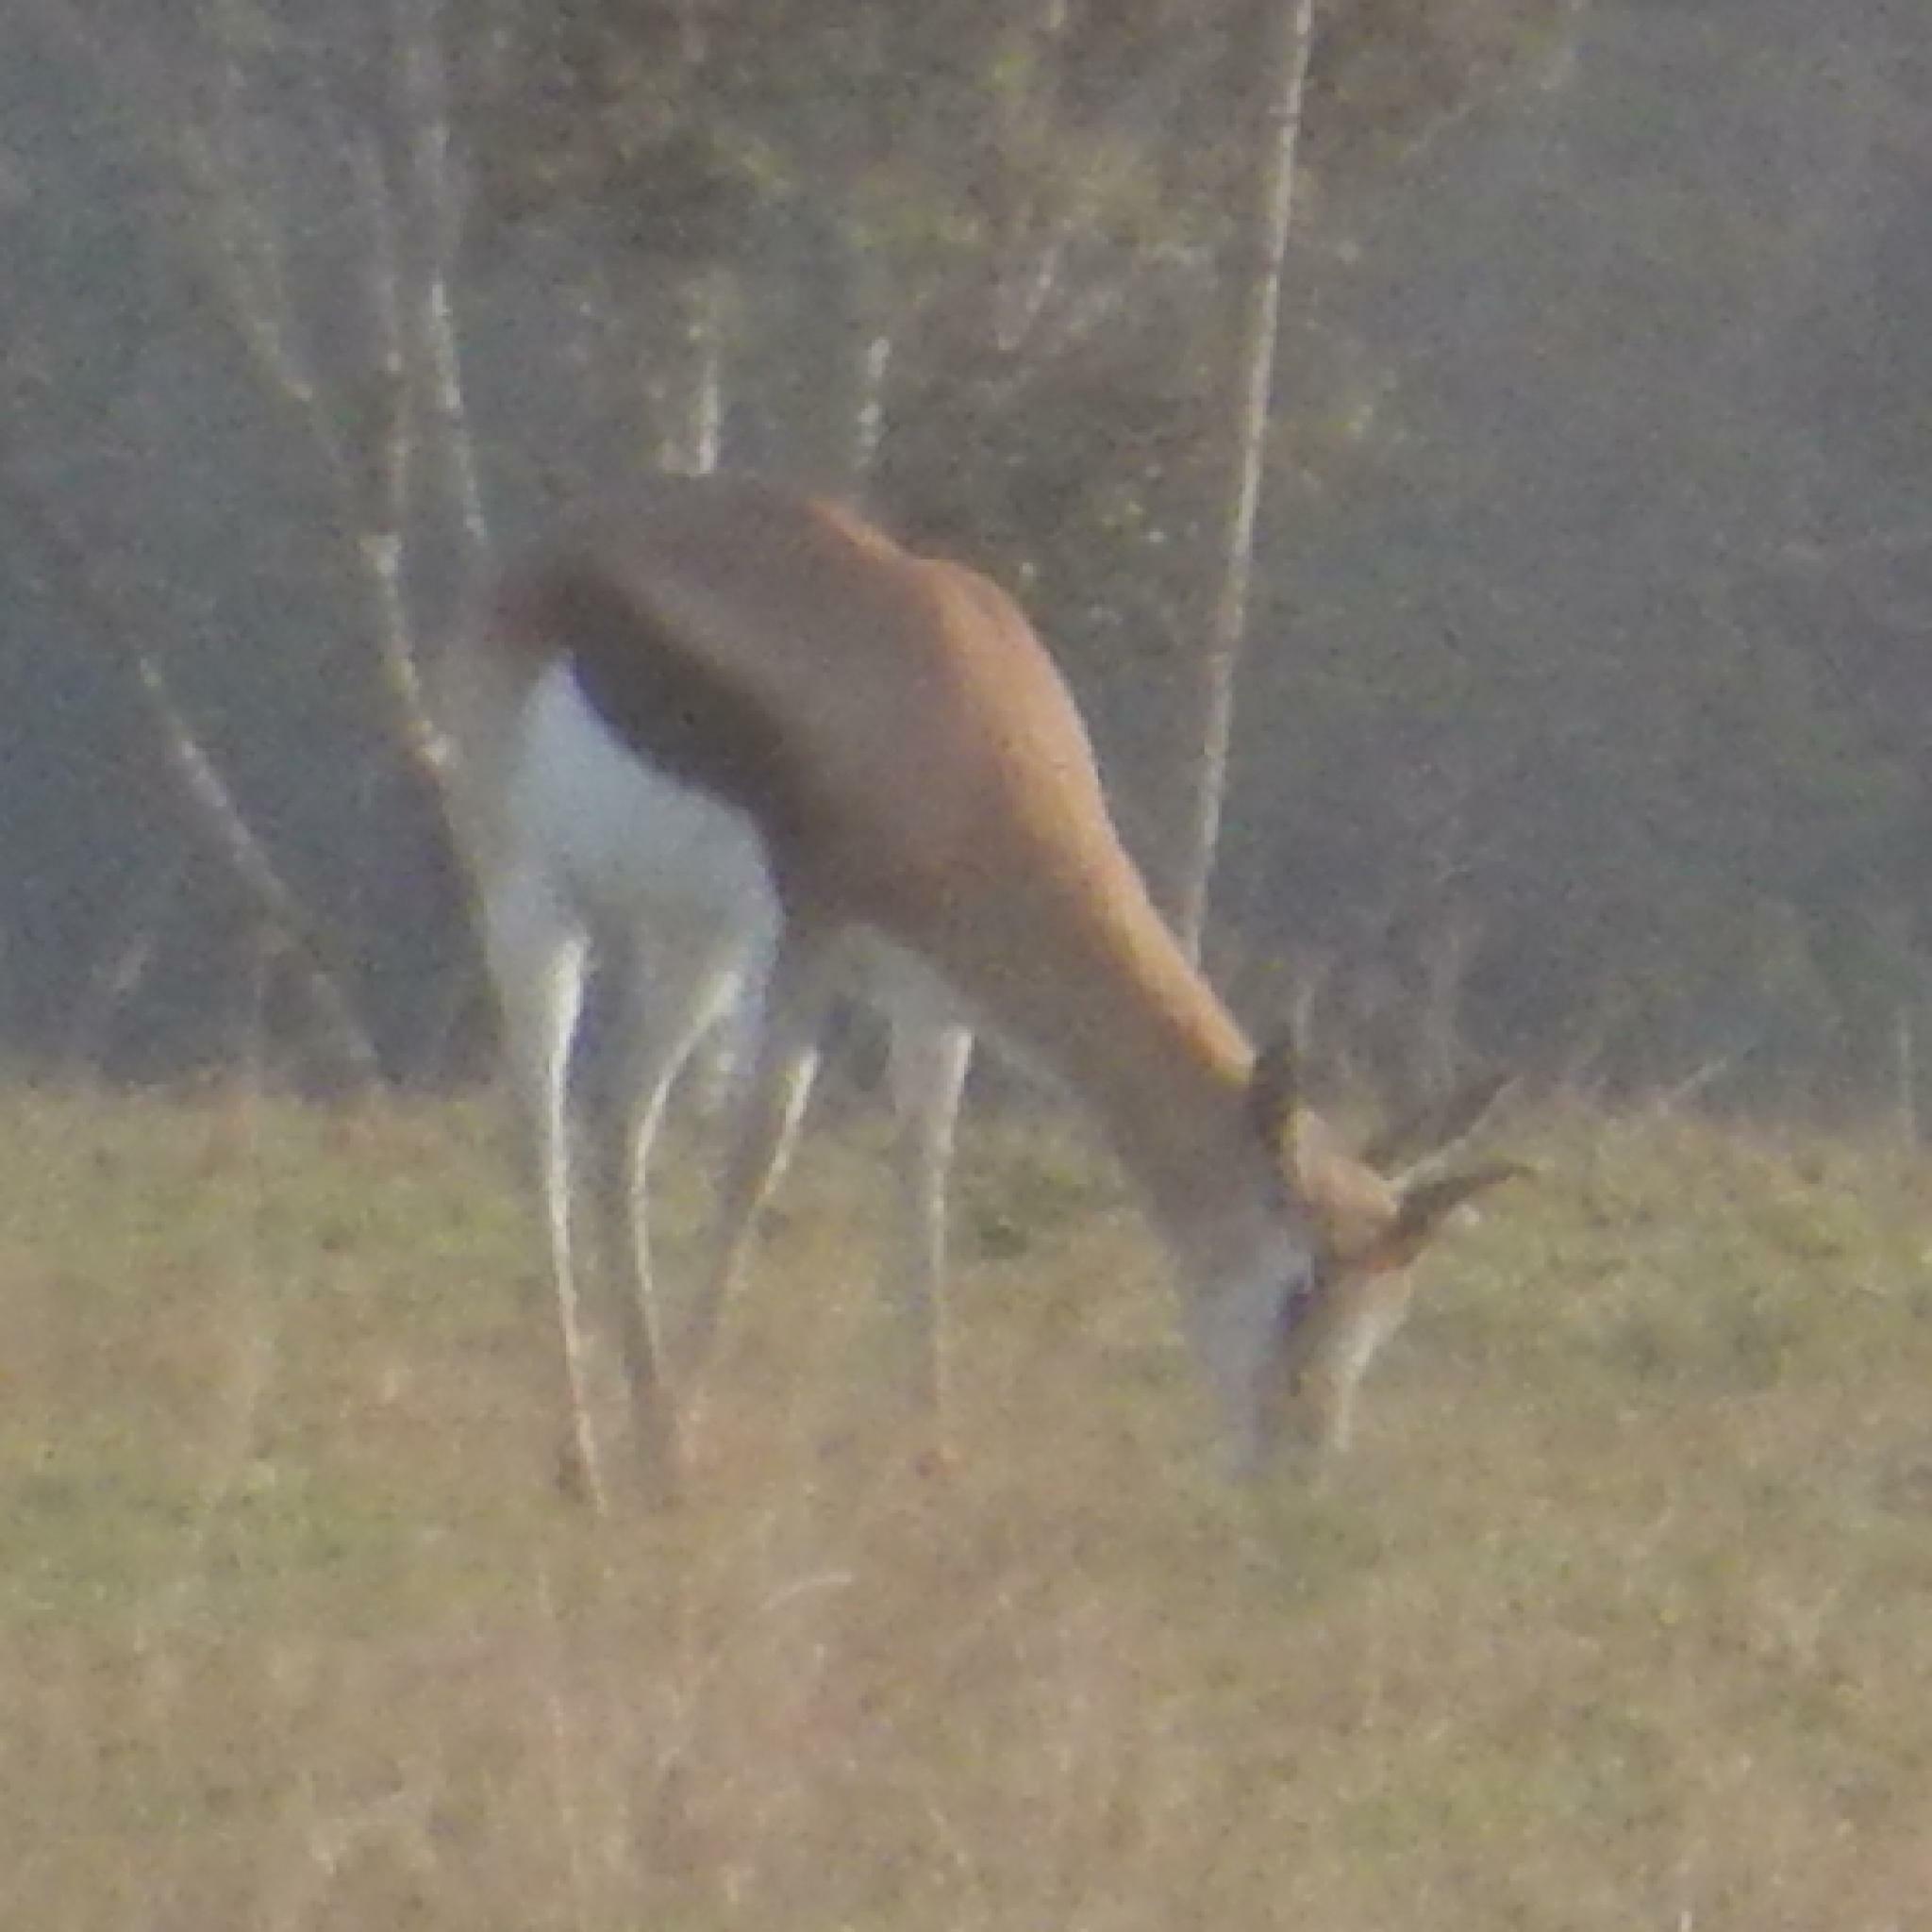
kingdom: Animalia
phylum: Chordata
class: Mammalia
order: Artiodactyla
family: Bovidae
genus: Antidorcas
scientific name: Antidorcas marsupialis
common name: Springbok
